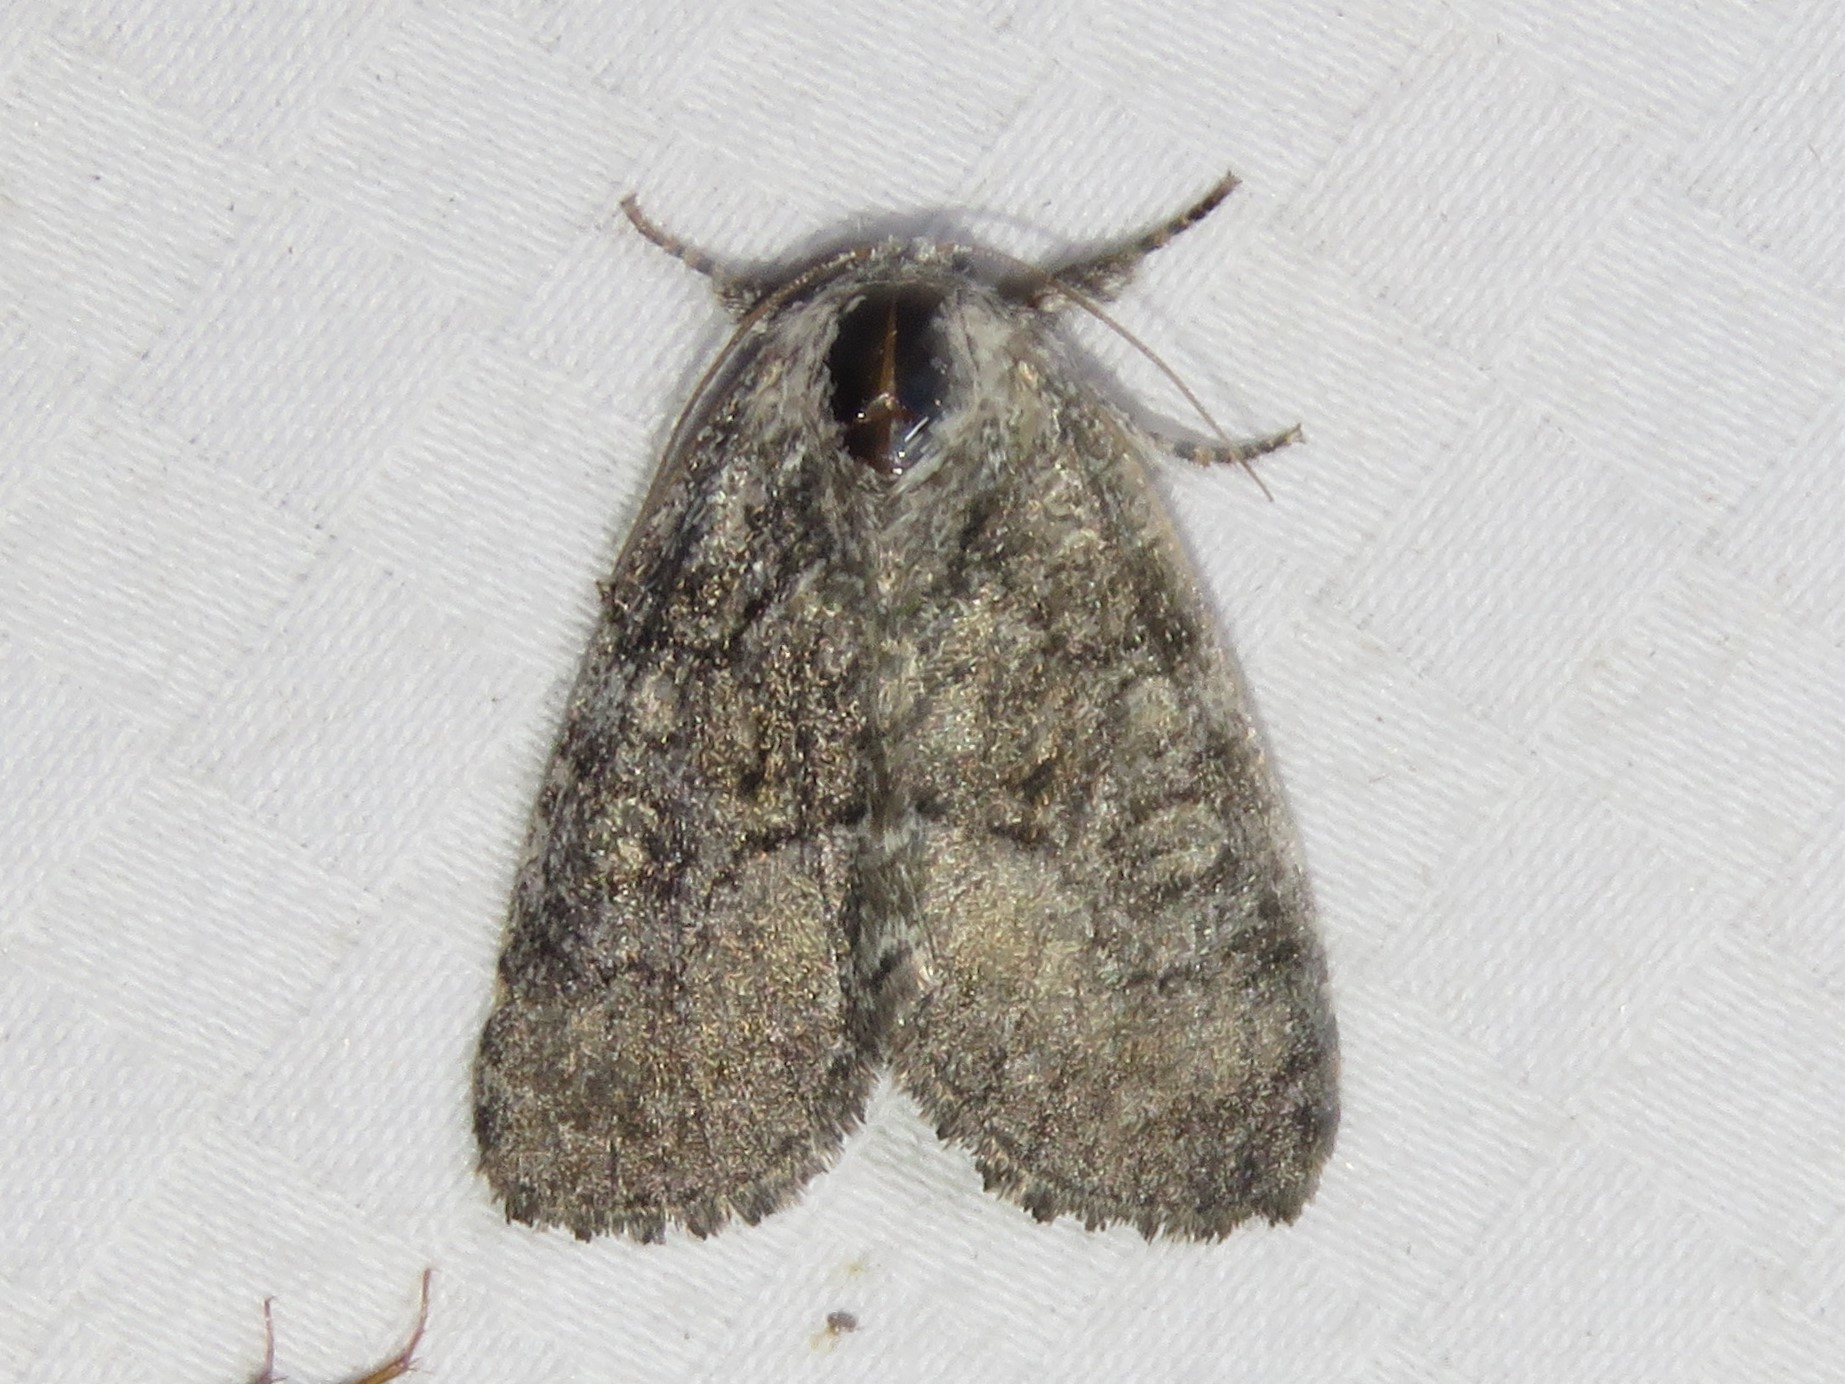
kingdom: Animalia
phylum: Arthropoda
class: Insecta
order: Lepidoptera
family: Noctuidae
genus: Raphia
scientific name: Raphia frater
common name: Brother
